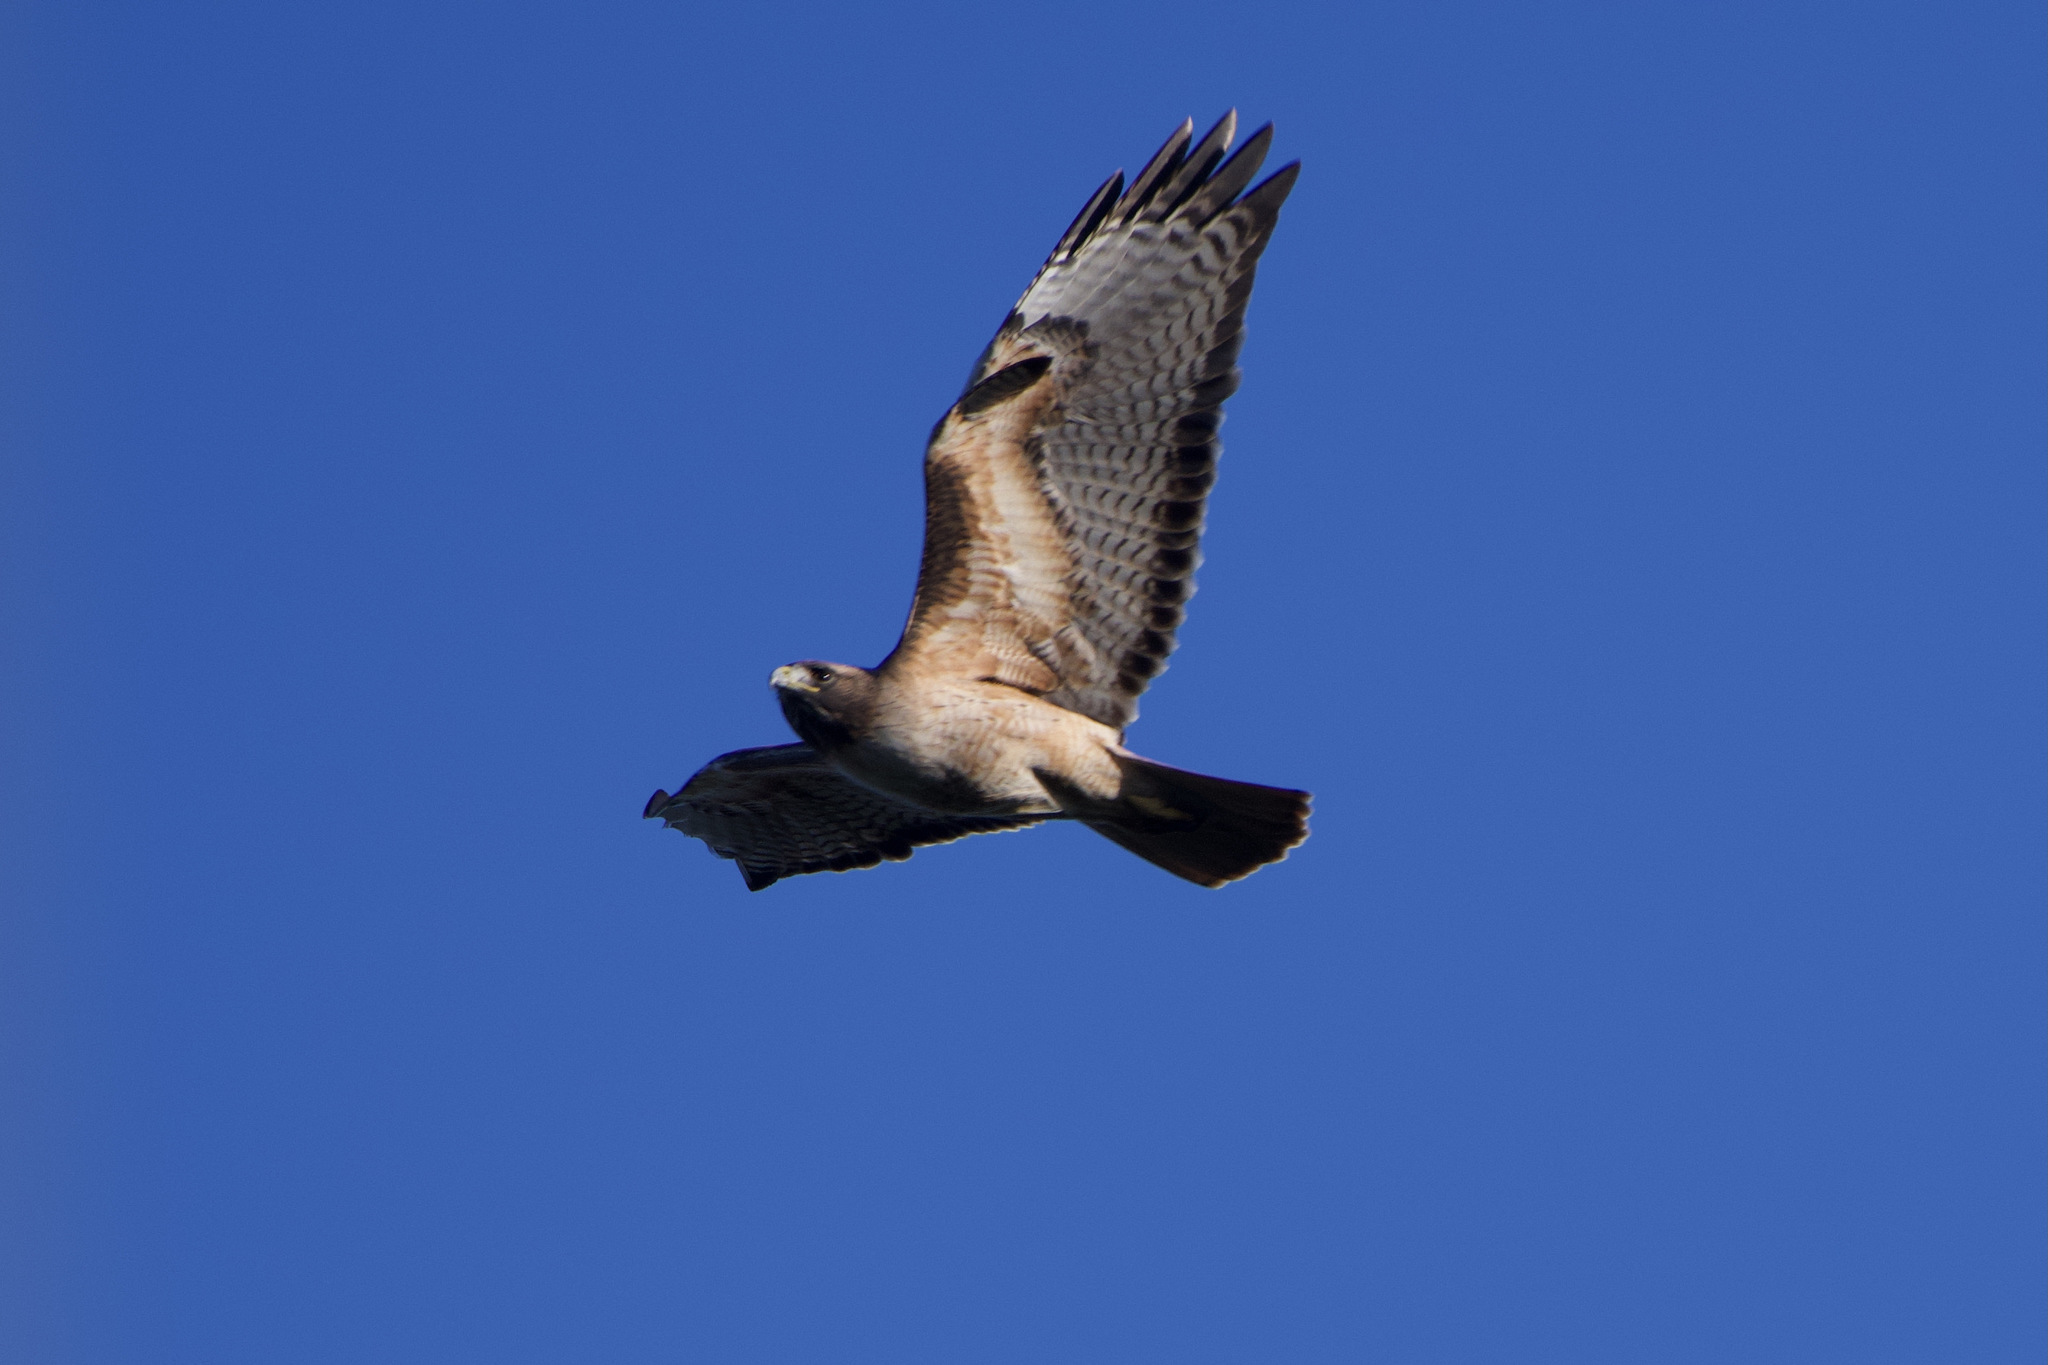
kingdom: Animalia
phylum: Chordata
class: Aves
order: Accipitriformes
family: Accipitridae
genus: Buteo
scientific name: Buteo jamaicensis
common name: Red-tailed hawk
